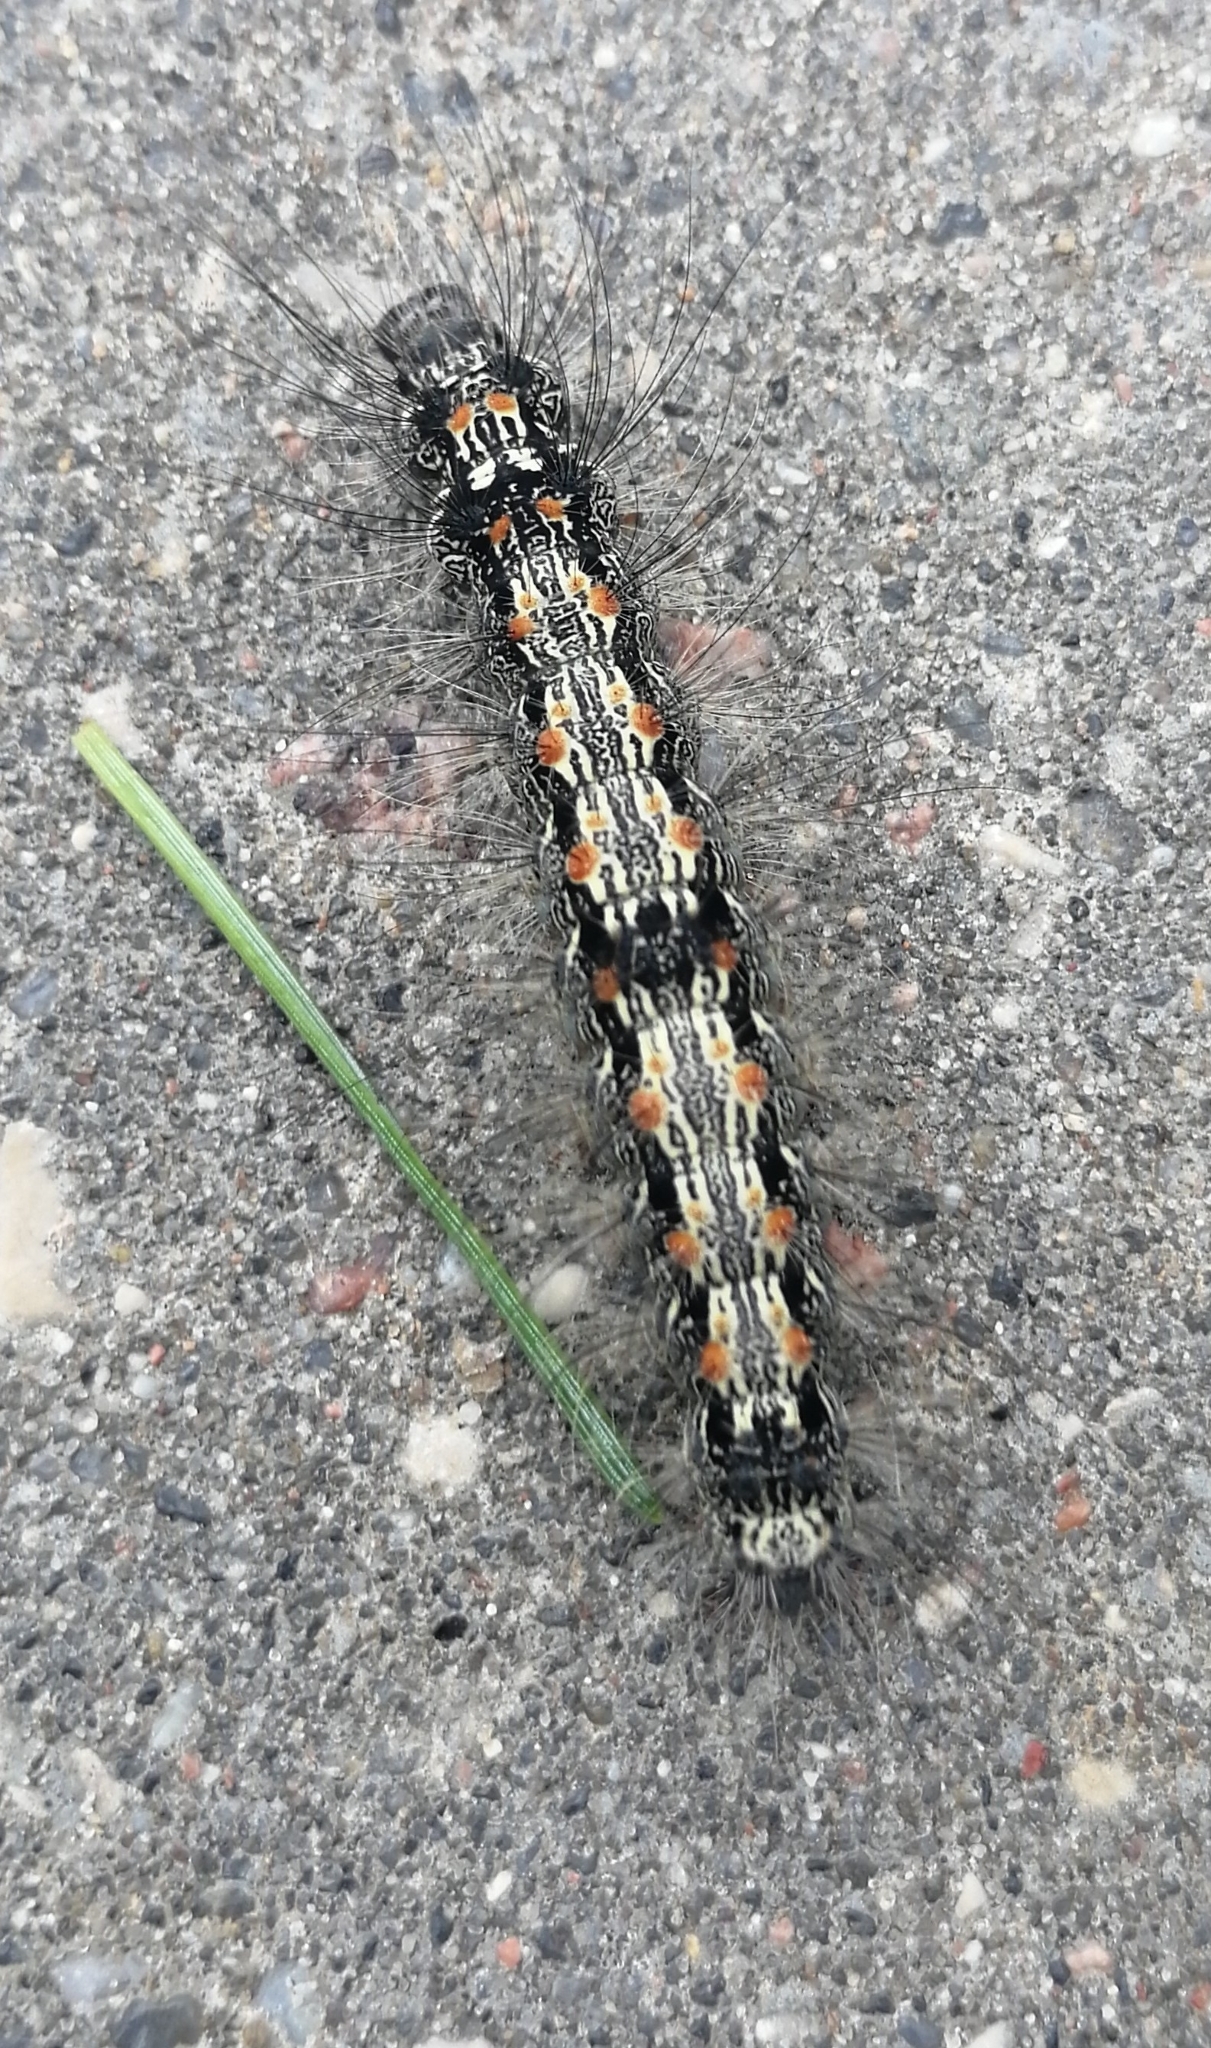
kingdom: Animalia
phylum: Arthropoda
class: Insecta
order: Lepidoptera
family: Erebidae
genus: Lithosia
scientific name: Lithosia quadra
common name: Four-spotted footman
